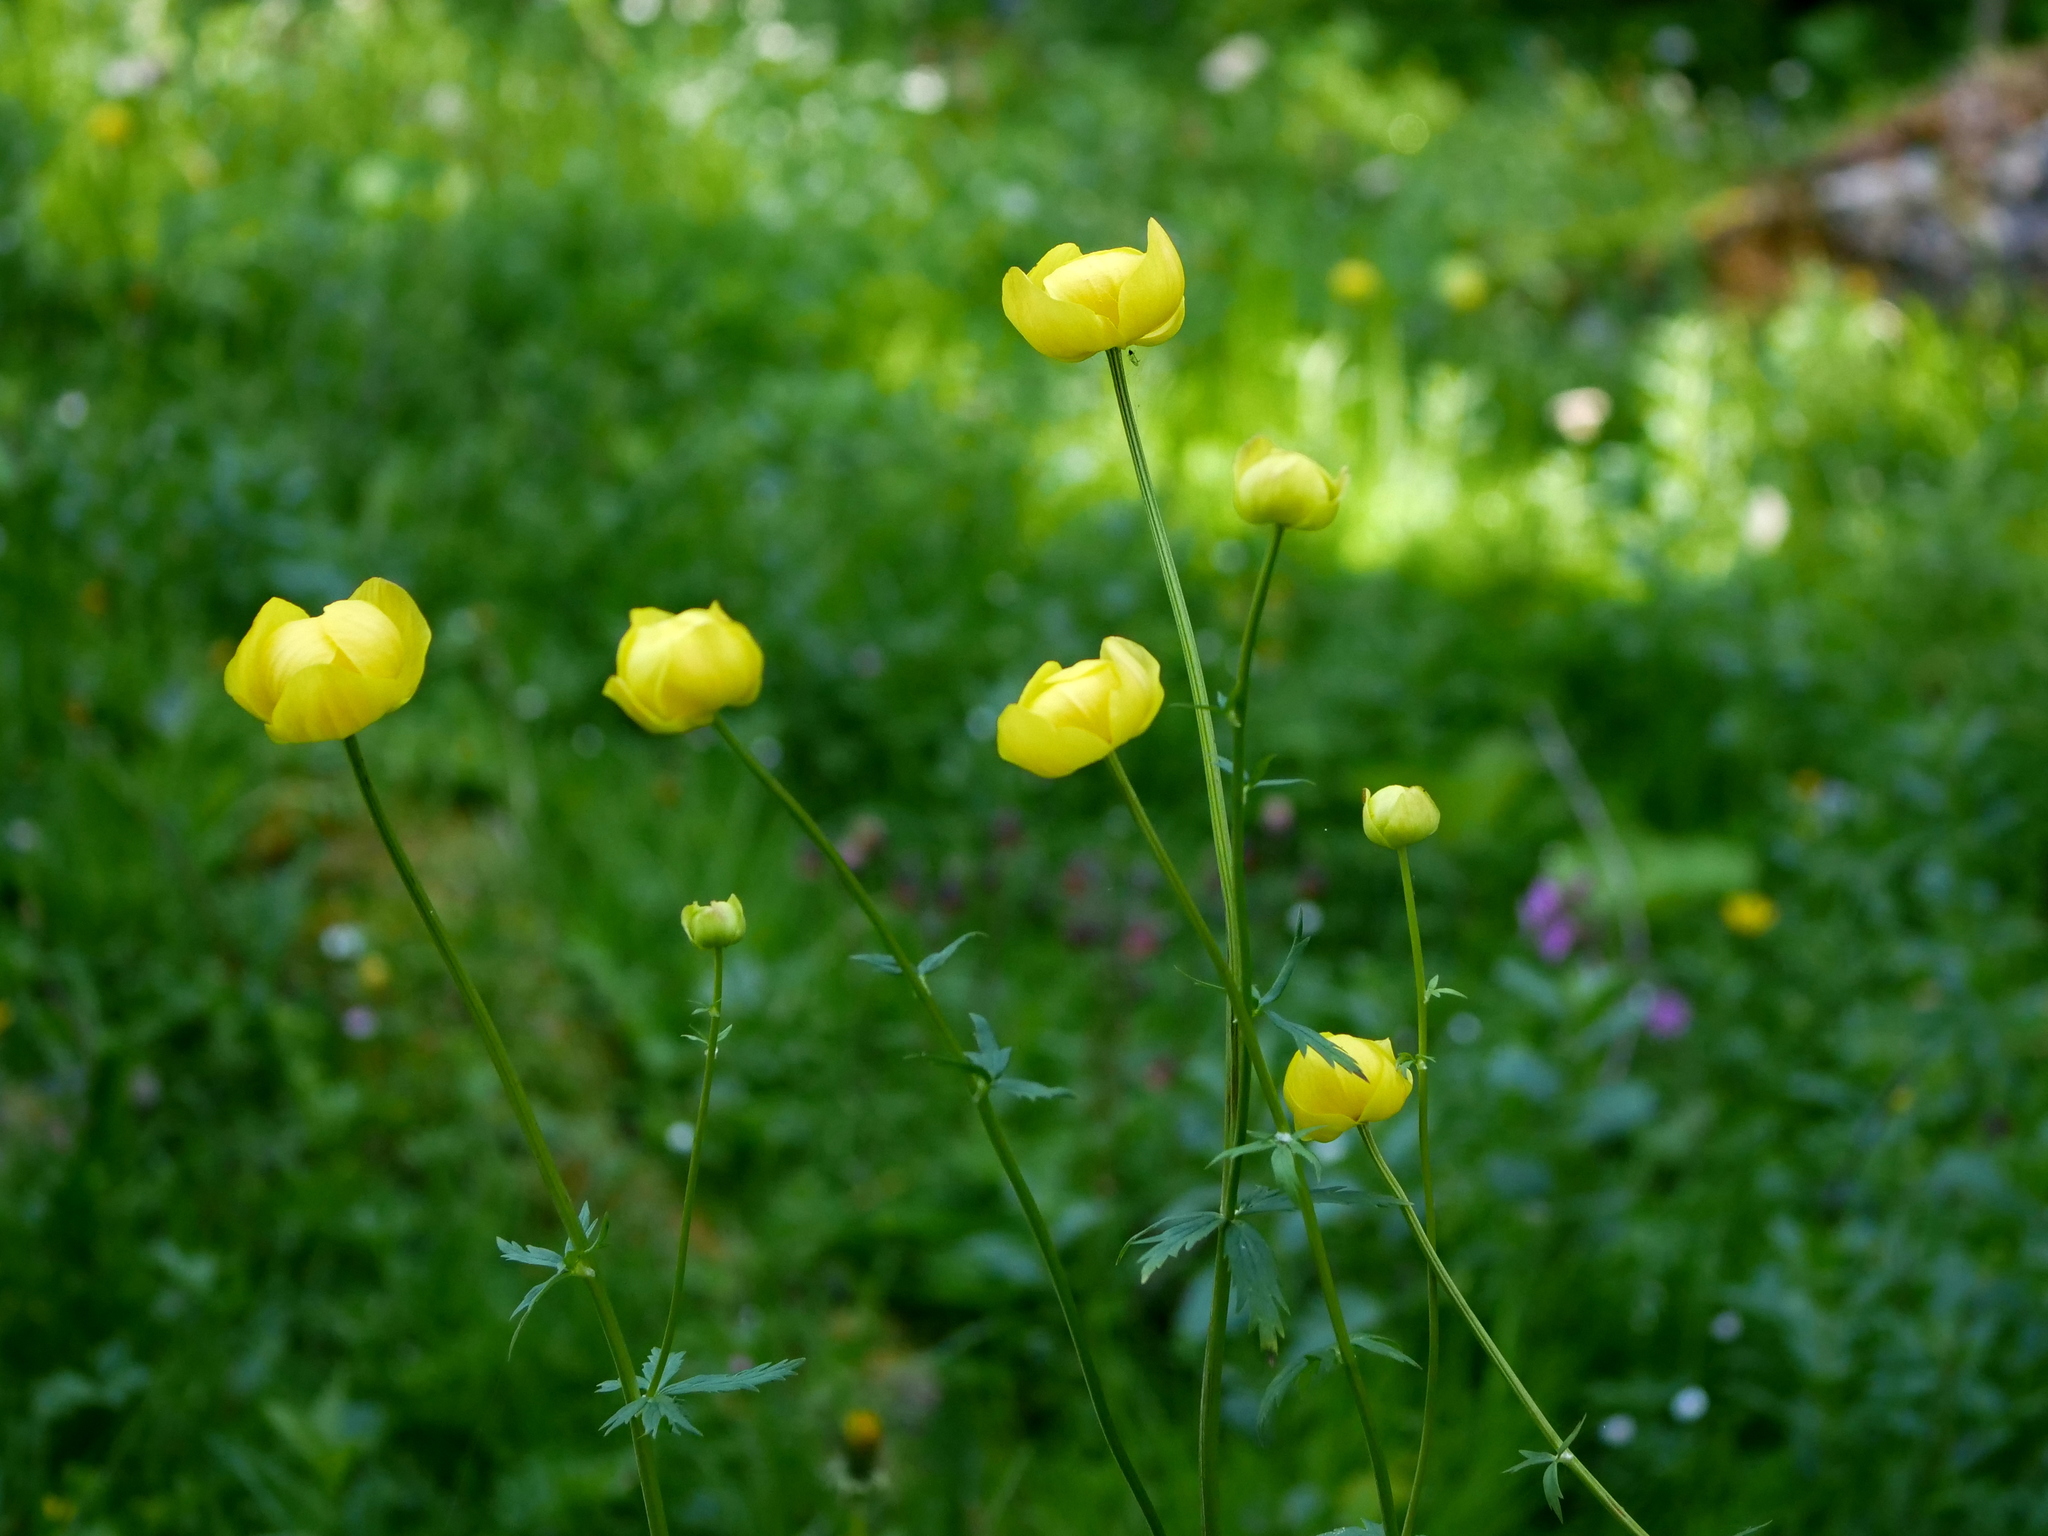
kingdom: Plantae
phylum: Tracheophyta
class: Magnoliopsida
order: Ranunculales
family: Ranunculaceae
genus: Trollius
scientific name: Trollius europaeus
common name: European globeflower
